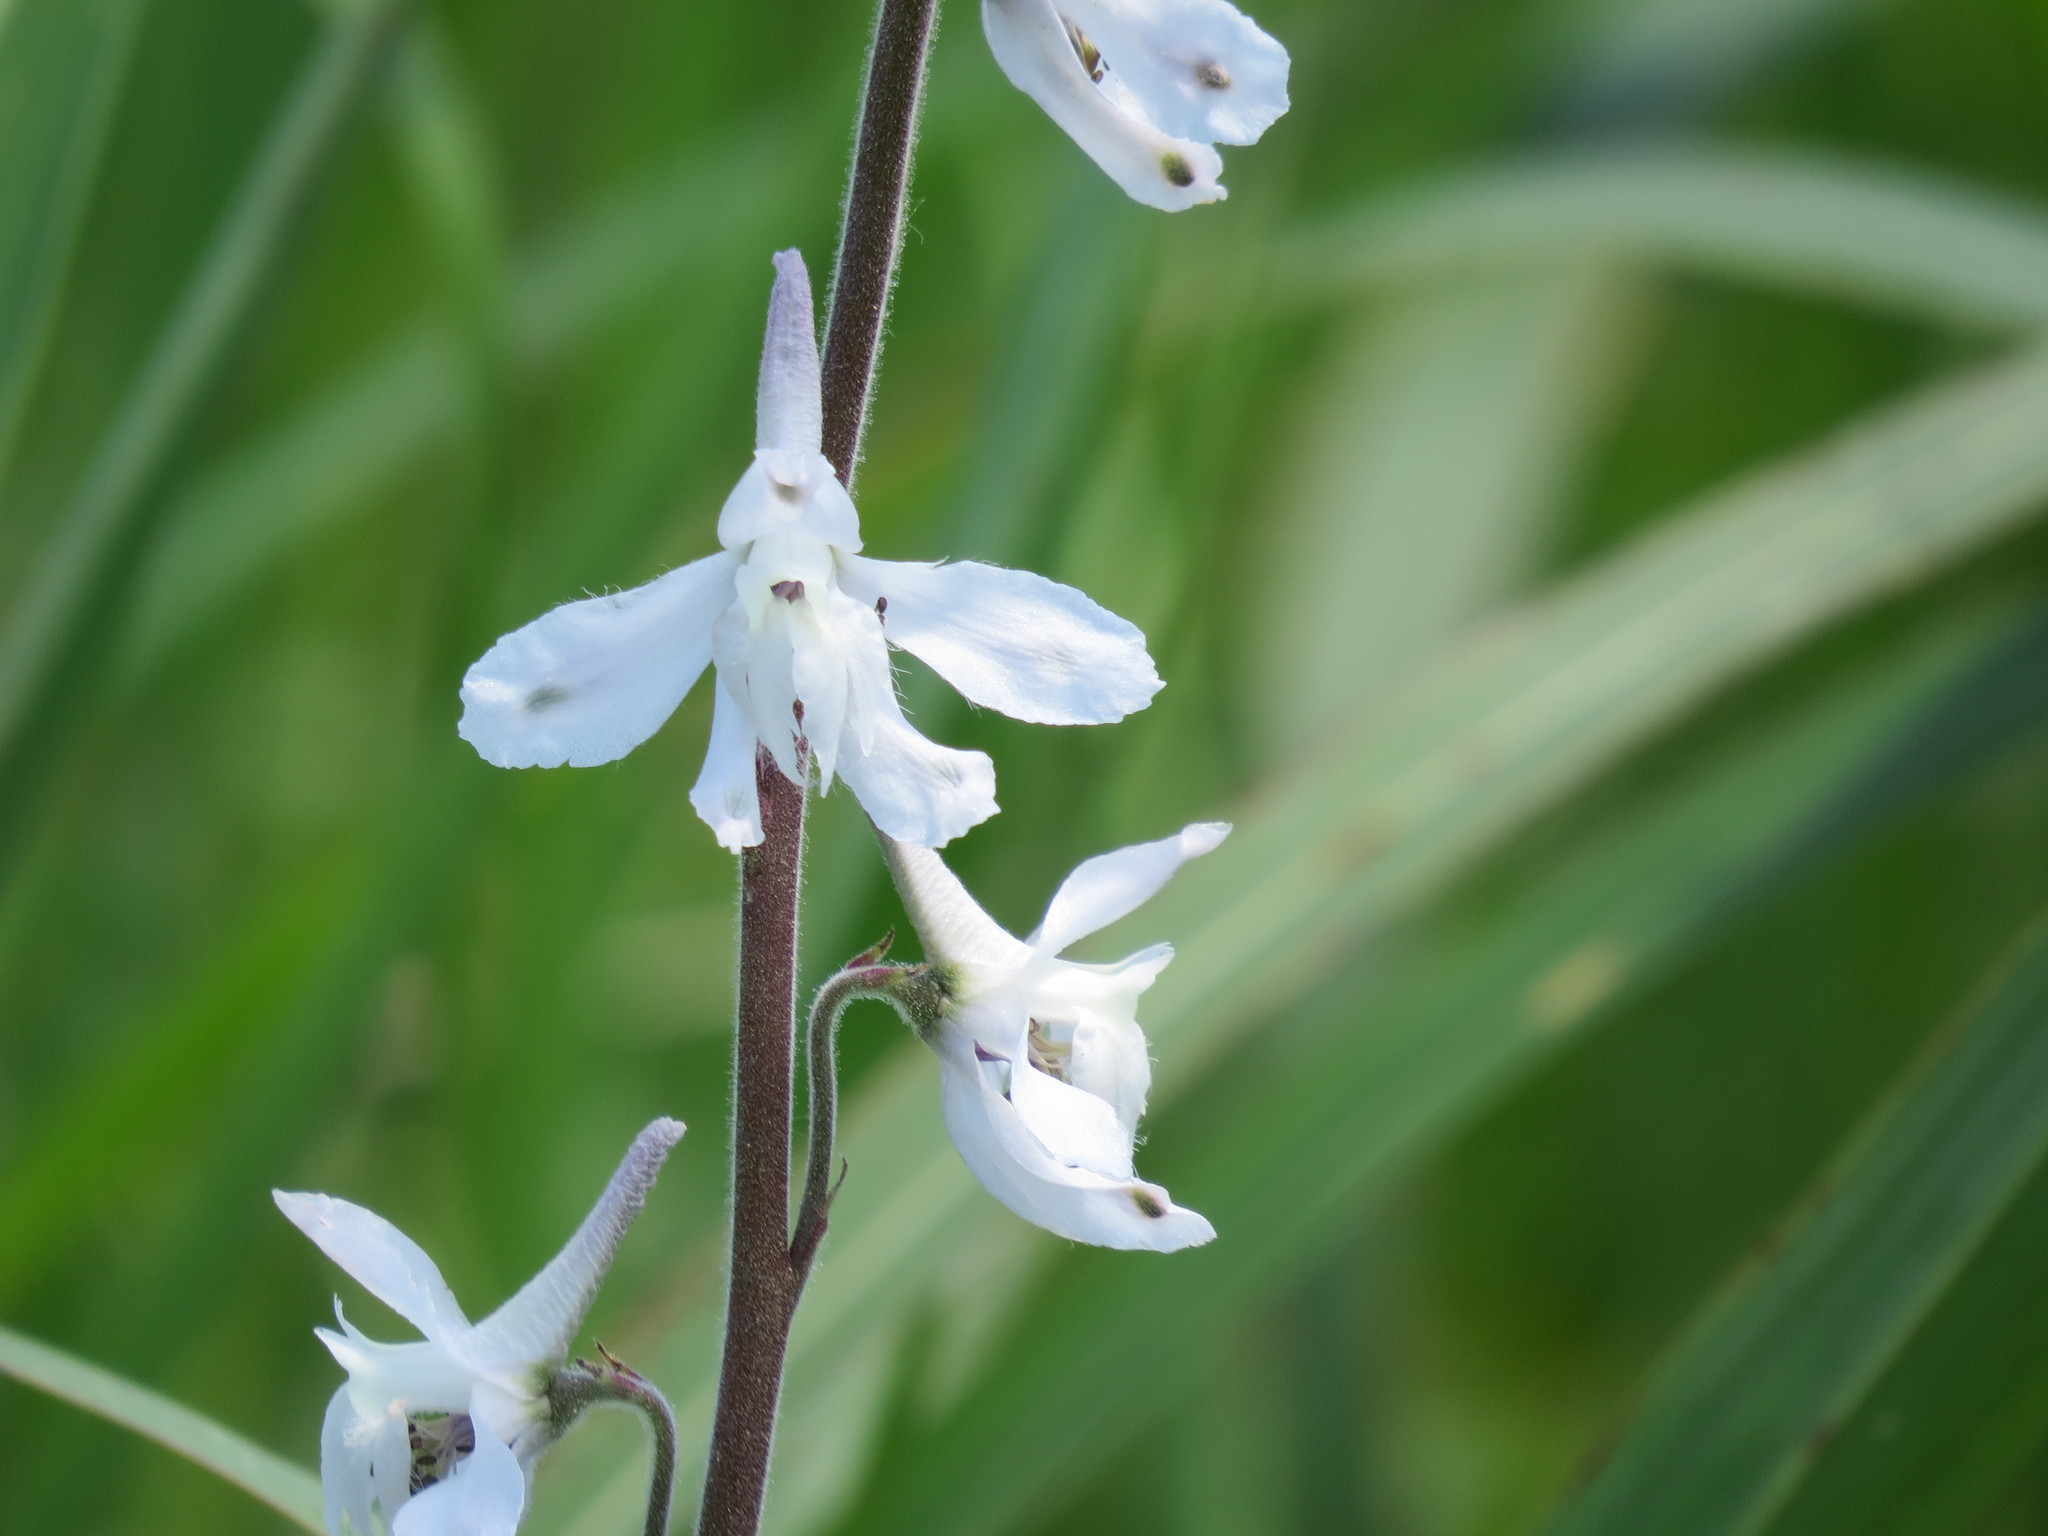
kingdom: Plantae
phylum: Tracheophyta
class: Magnoliopsida
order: Ranunculales
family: Ranunculaceae
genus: Delphinium
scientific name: Delphinium carolinianum
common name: Carolina larkspur
